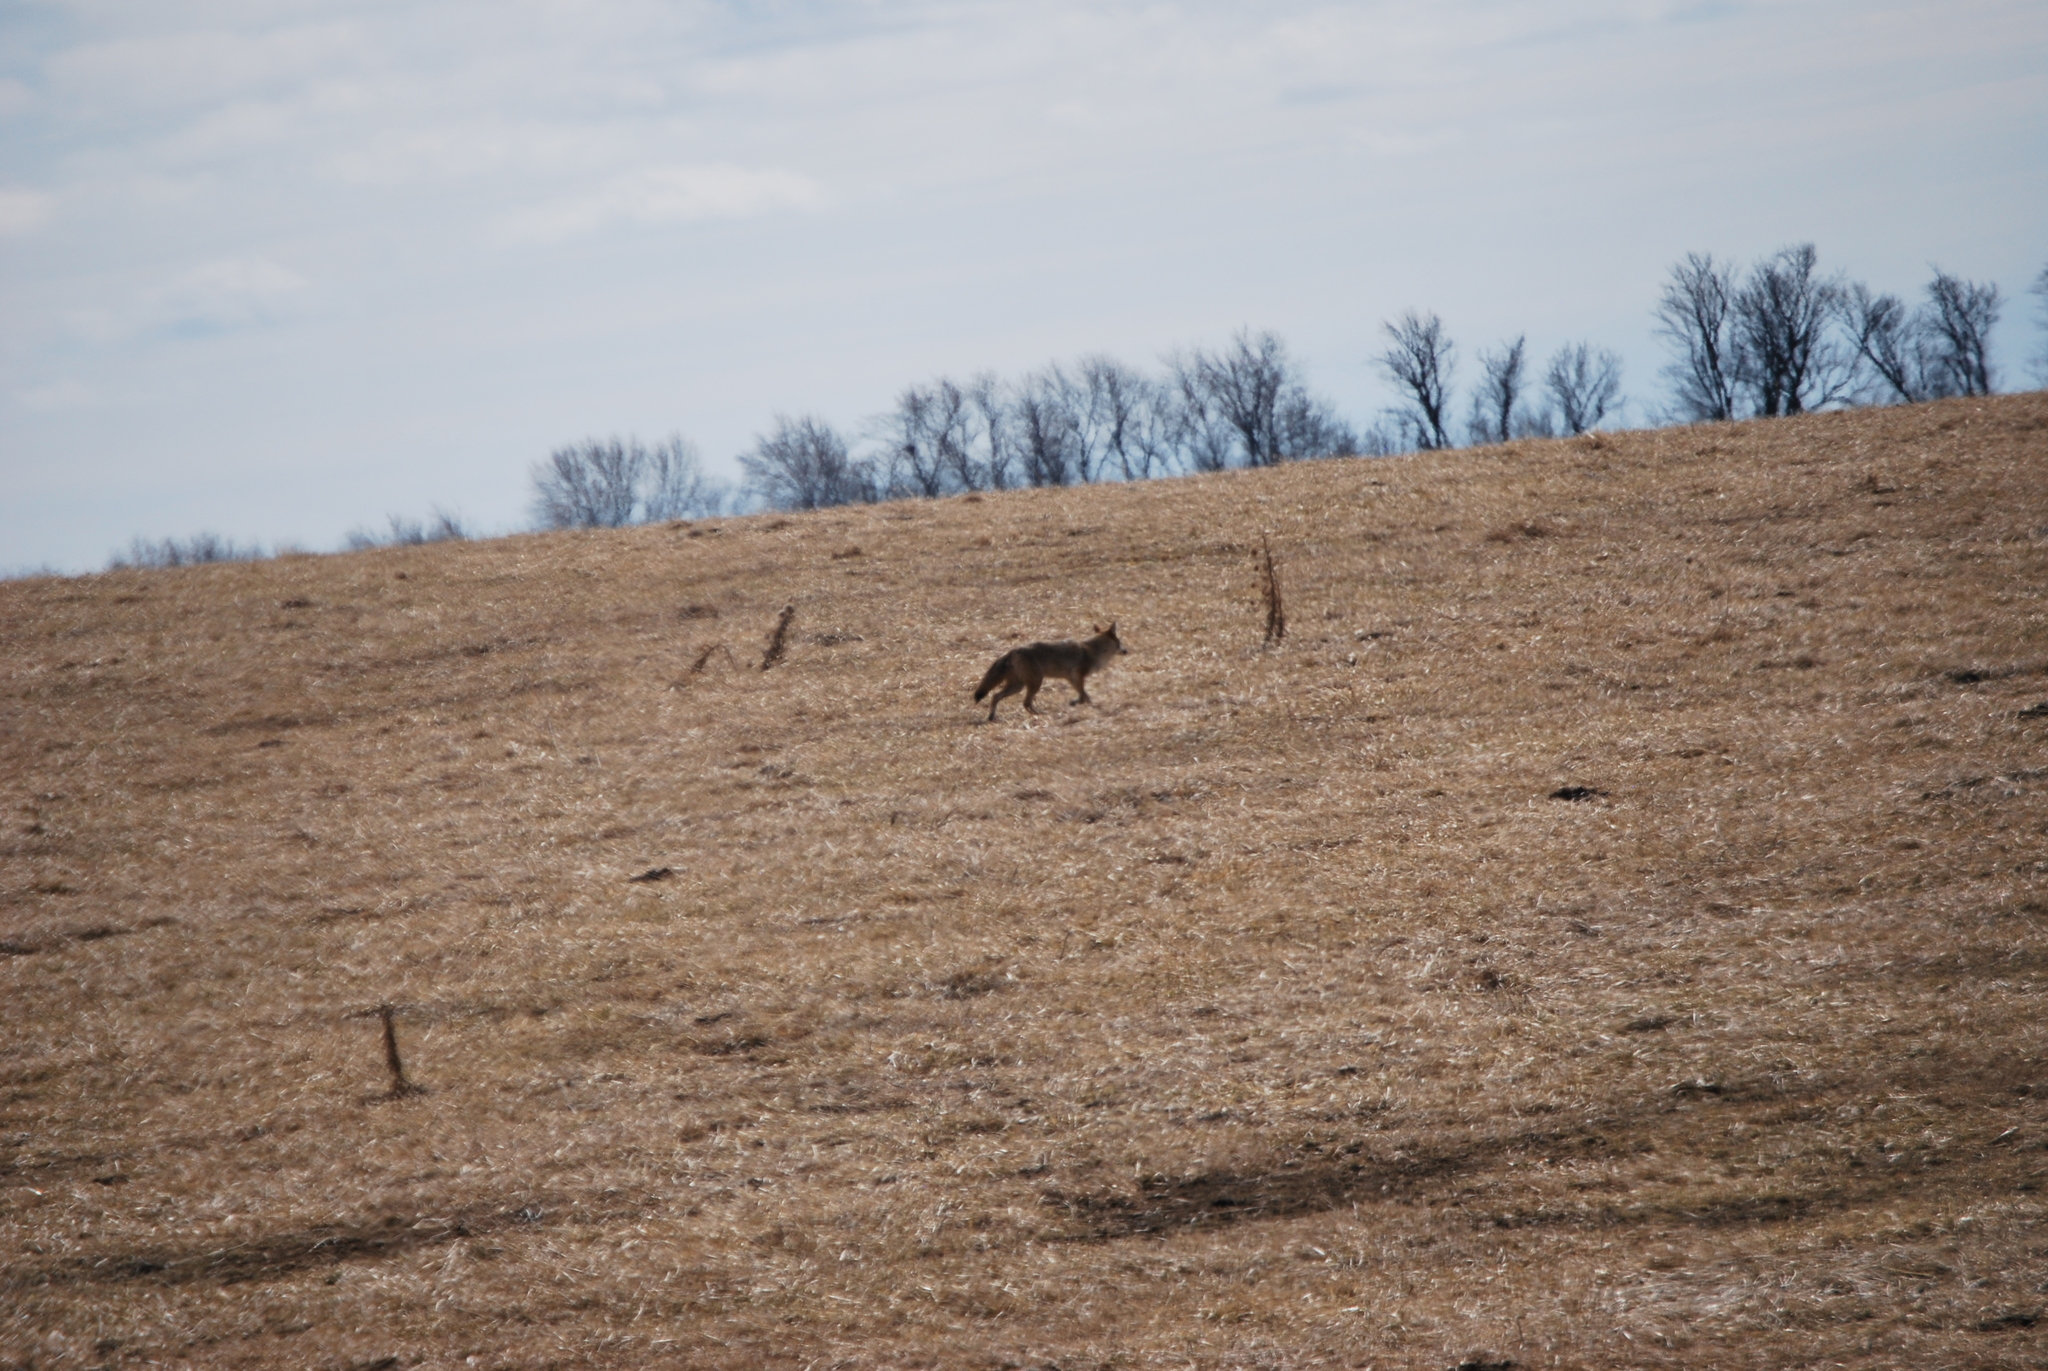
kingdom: Animalia
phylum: Chordata
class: Mammalia
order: Carnivora
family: Canidae
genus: Canis
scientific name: Canis latrans
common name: Coyote
